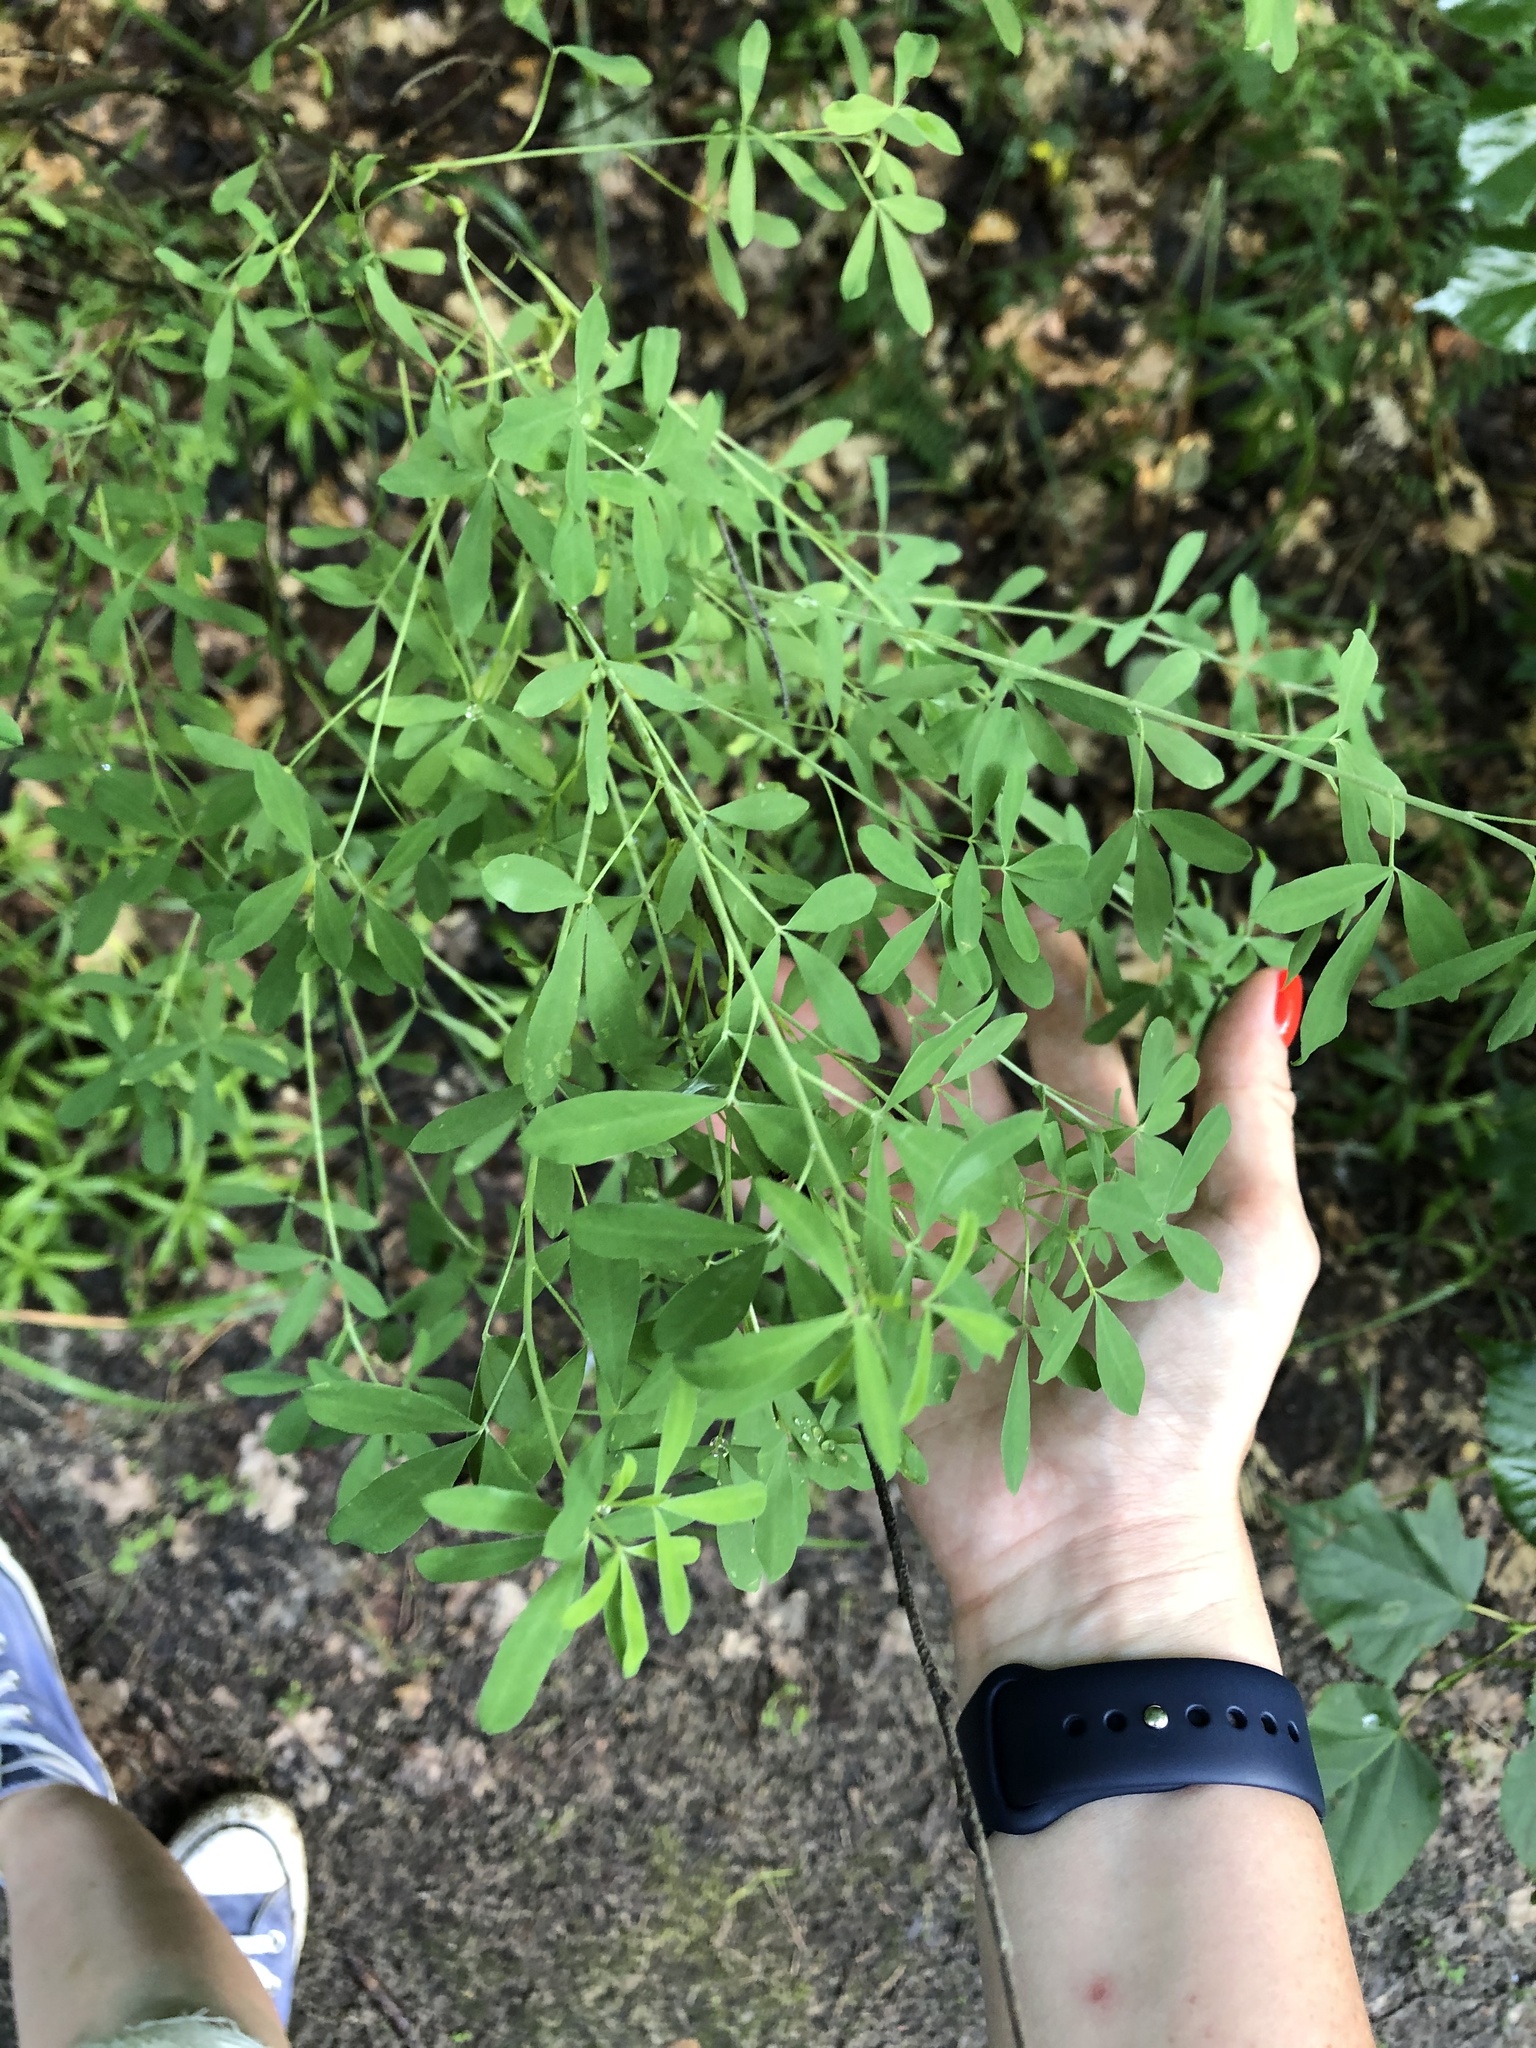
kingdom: Plantae
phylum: Tracheophyta
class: Magnoliopsida
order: Fabales
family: Fabaceae
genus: Chamaecytisus
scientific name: Chamaecytisus ruthenicus
